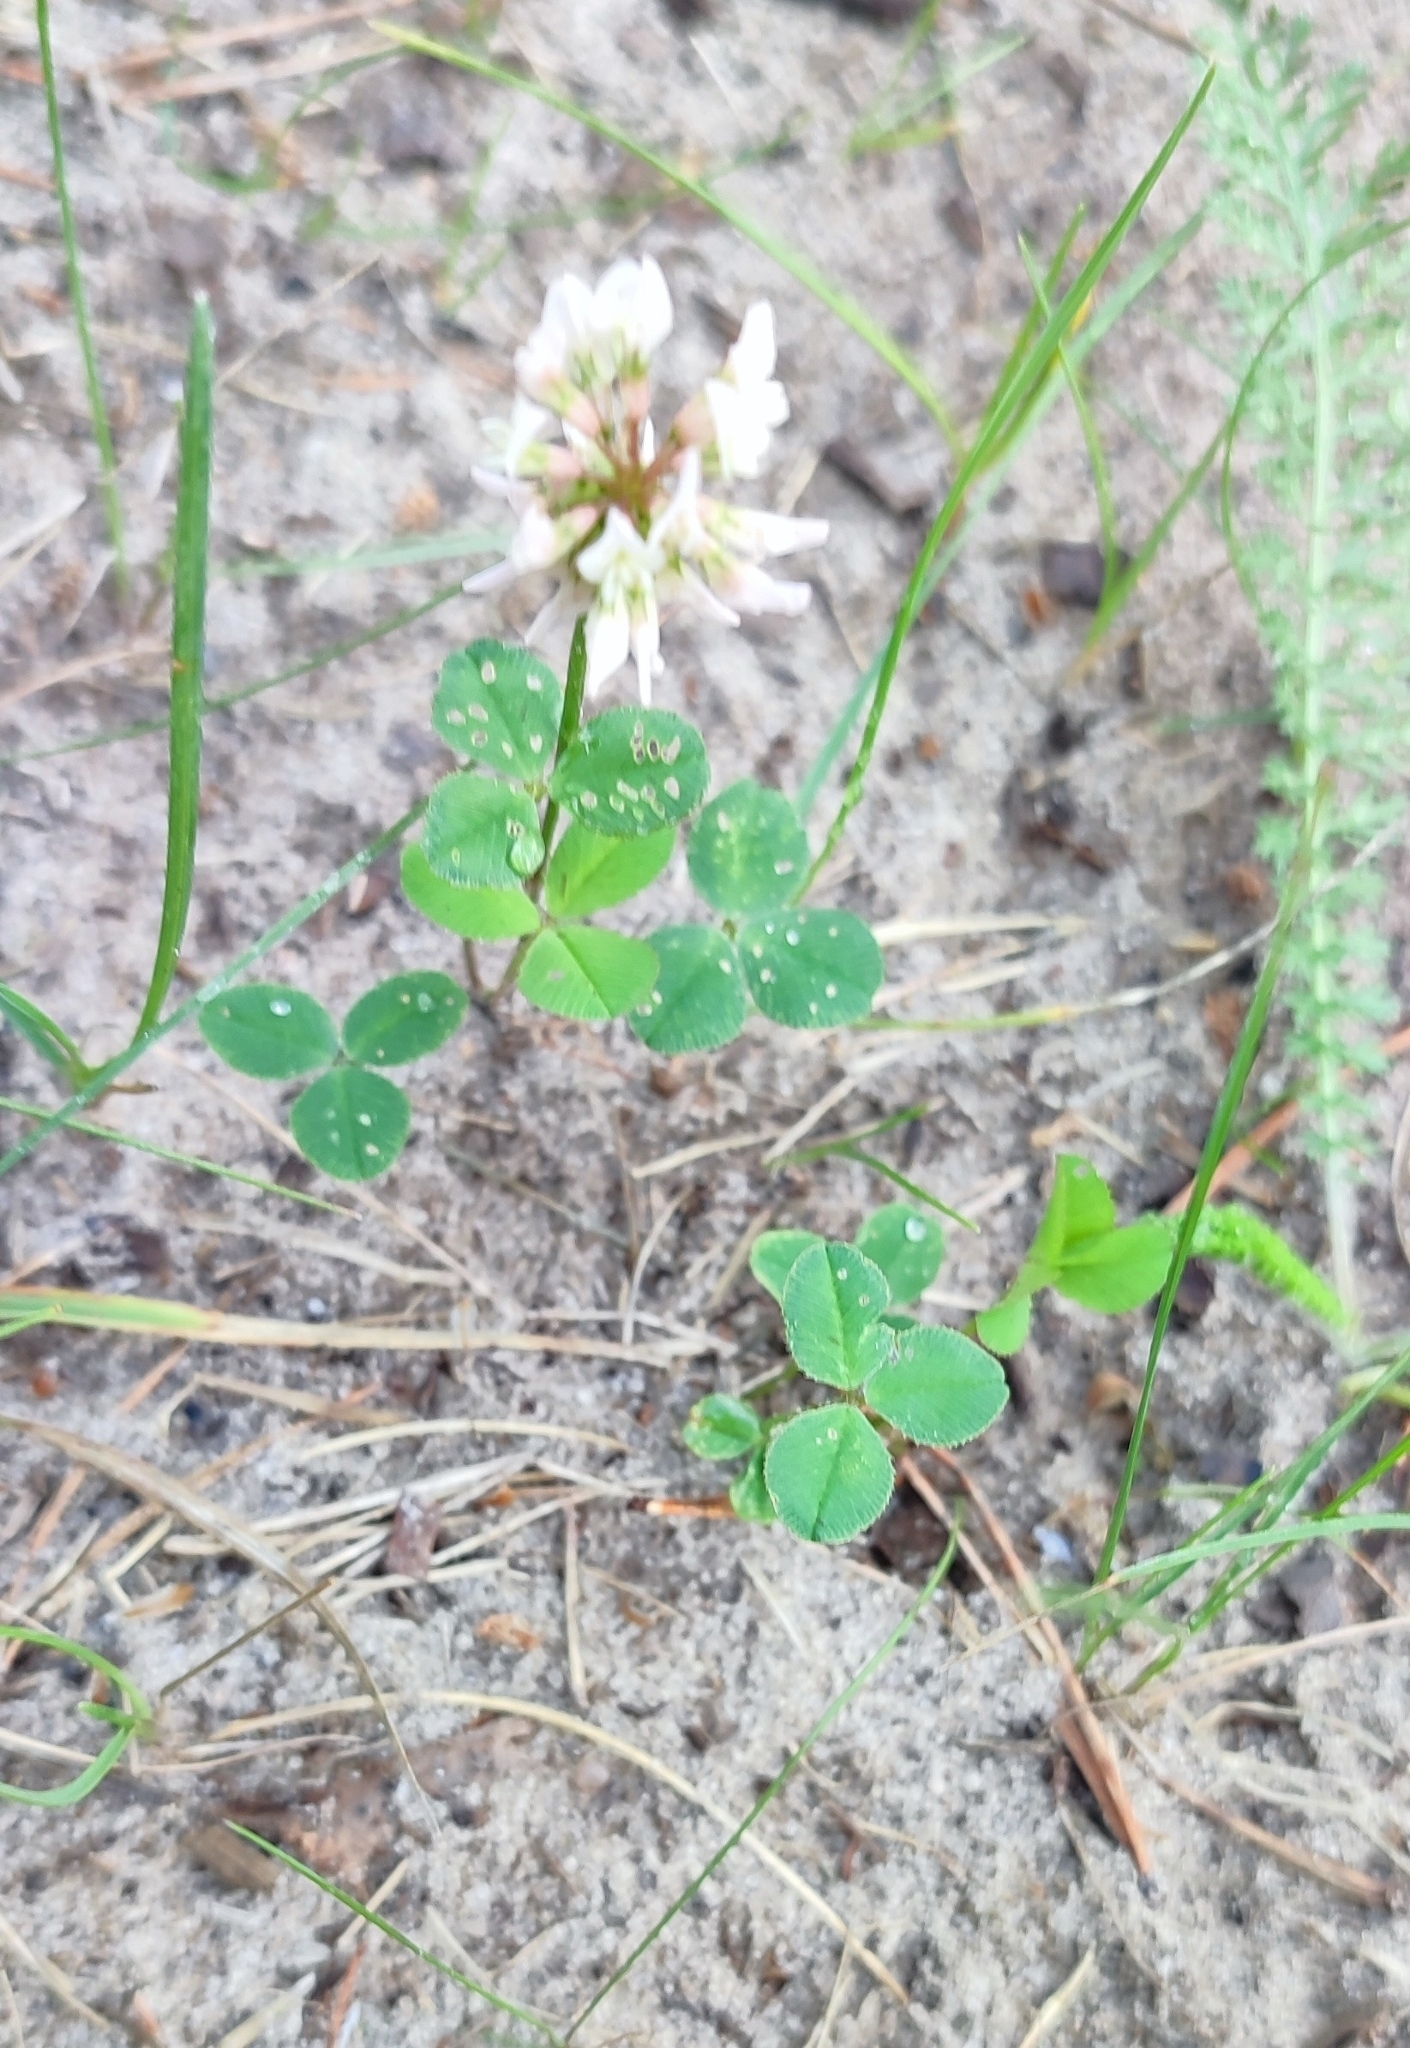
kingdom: Plantae
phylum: Tracheophyta
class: Magnoliopsida
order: Fabales
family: Fabaceae
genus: Trifolium
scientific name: Trifolium repens
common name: White clover
